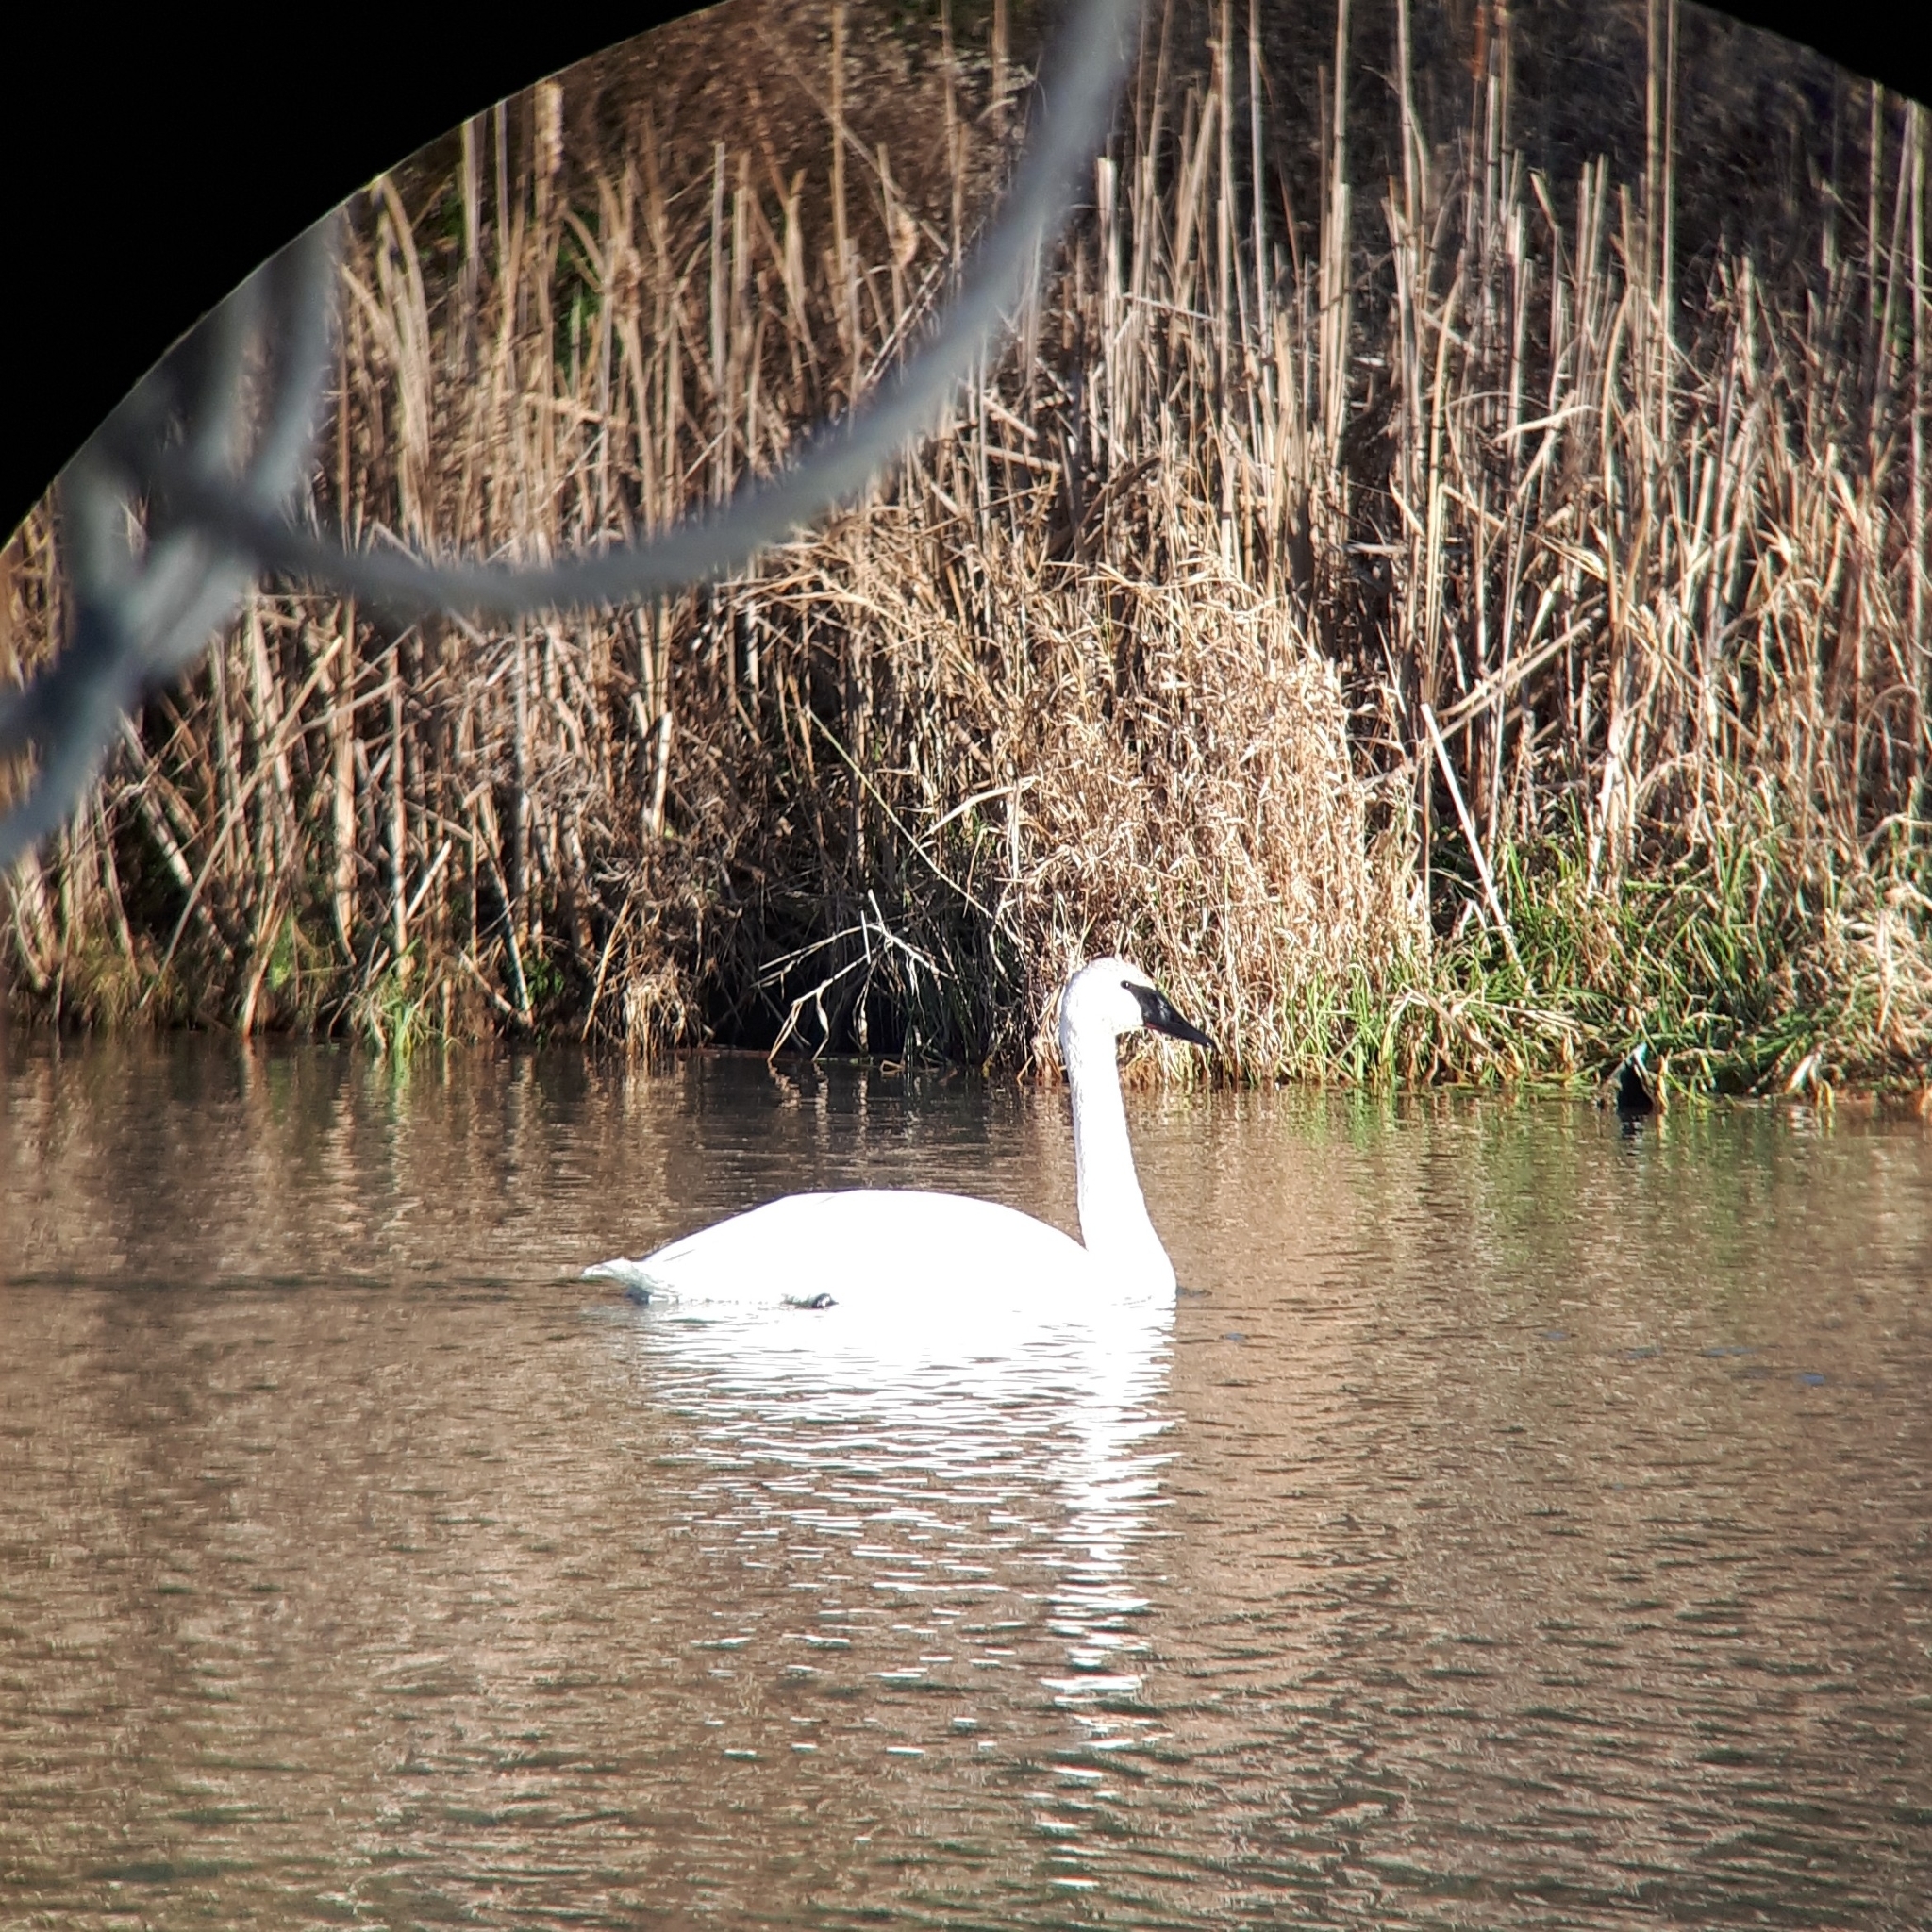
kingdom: Animalia
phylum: Chordata
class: Aves
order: Anseriformes
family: Anatidae
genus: Cygnus
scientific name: Cygnus buccinator
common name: Trumpeter swan
